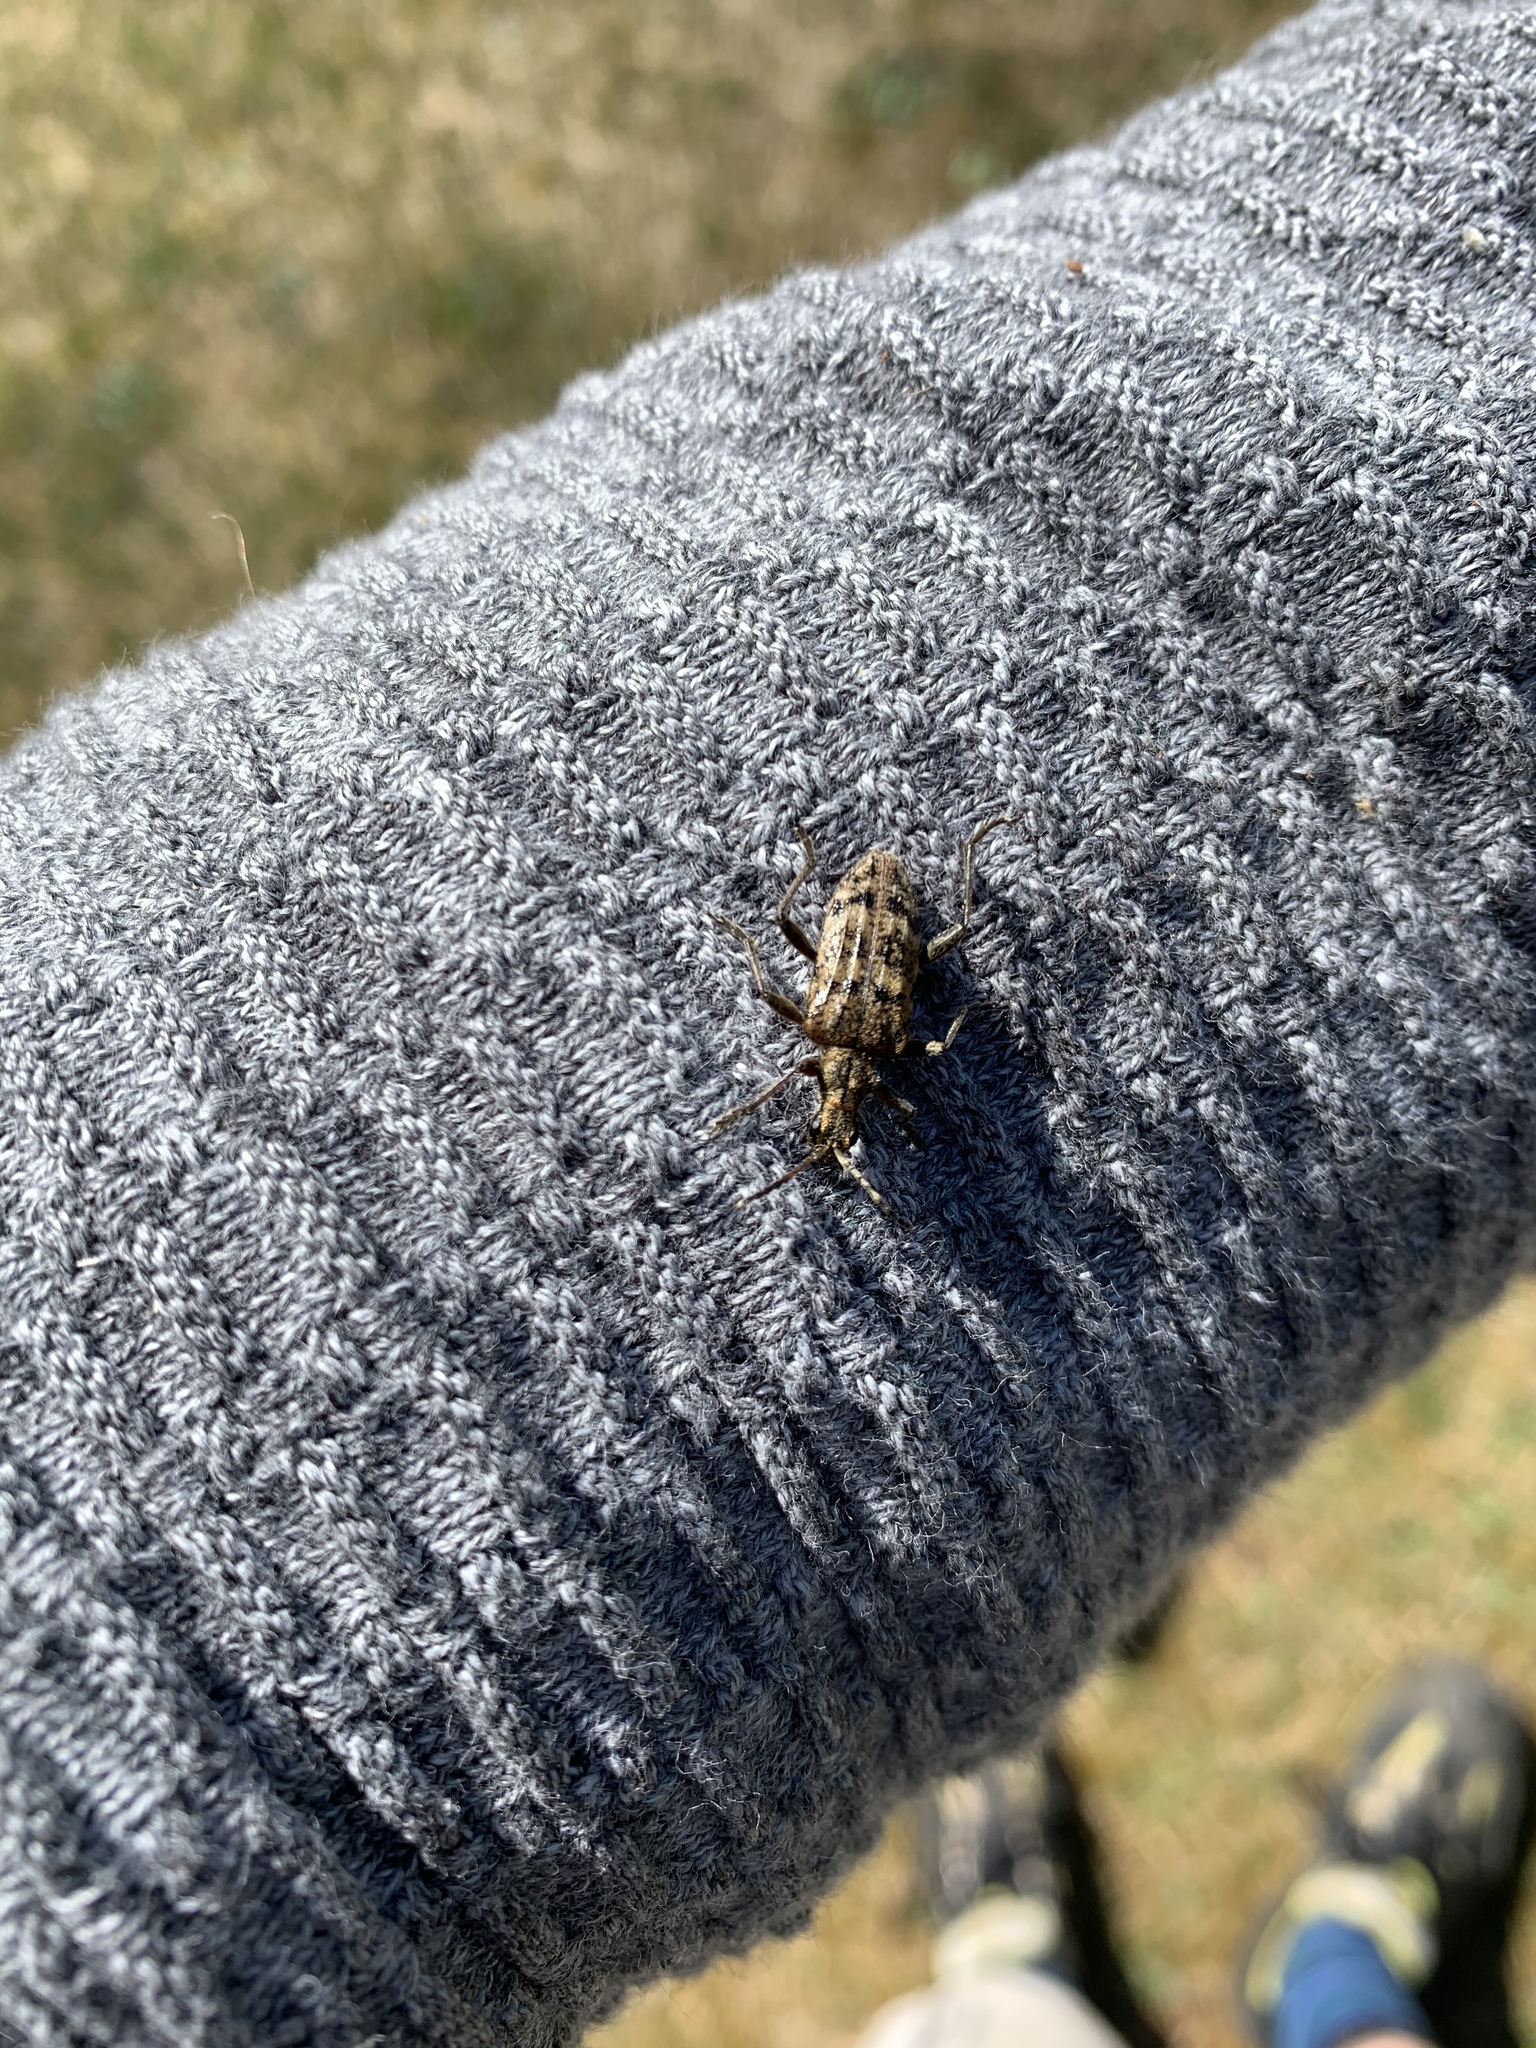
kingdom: Animalia
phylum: Arthropoda
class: Insecta
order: Coleoptera
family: Cerambycidae
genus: Rhagium
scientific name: Rhagium inquisitor
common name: Ribbed pine borer
